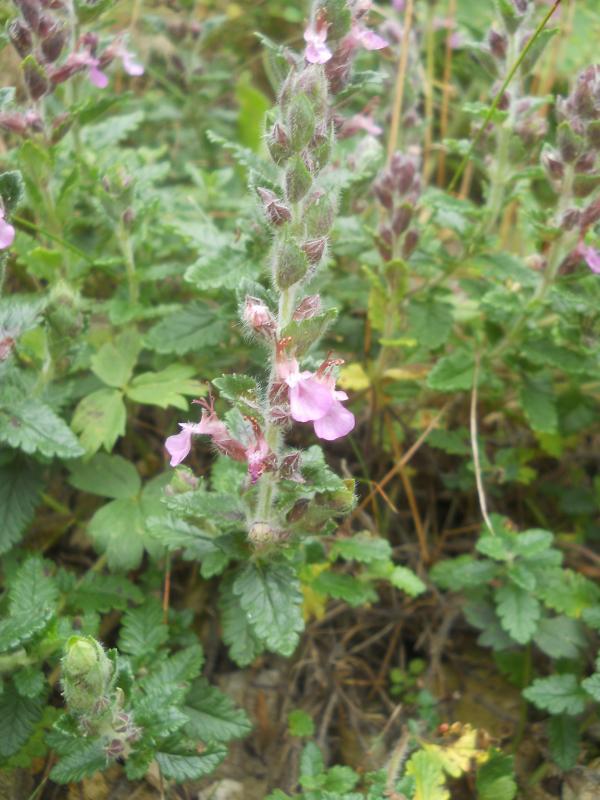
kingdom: Plantae
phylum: Tracheophyta
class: Magnoliopsida
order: Lamiales
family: Lamiaceae
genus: Teucrium
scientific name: Teucrium chamaedrys
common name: Wall germander
